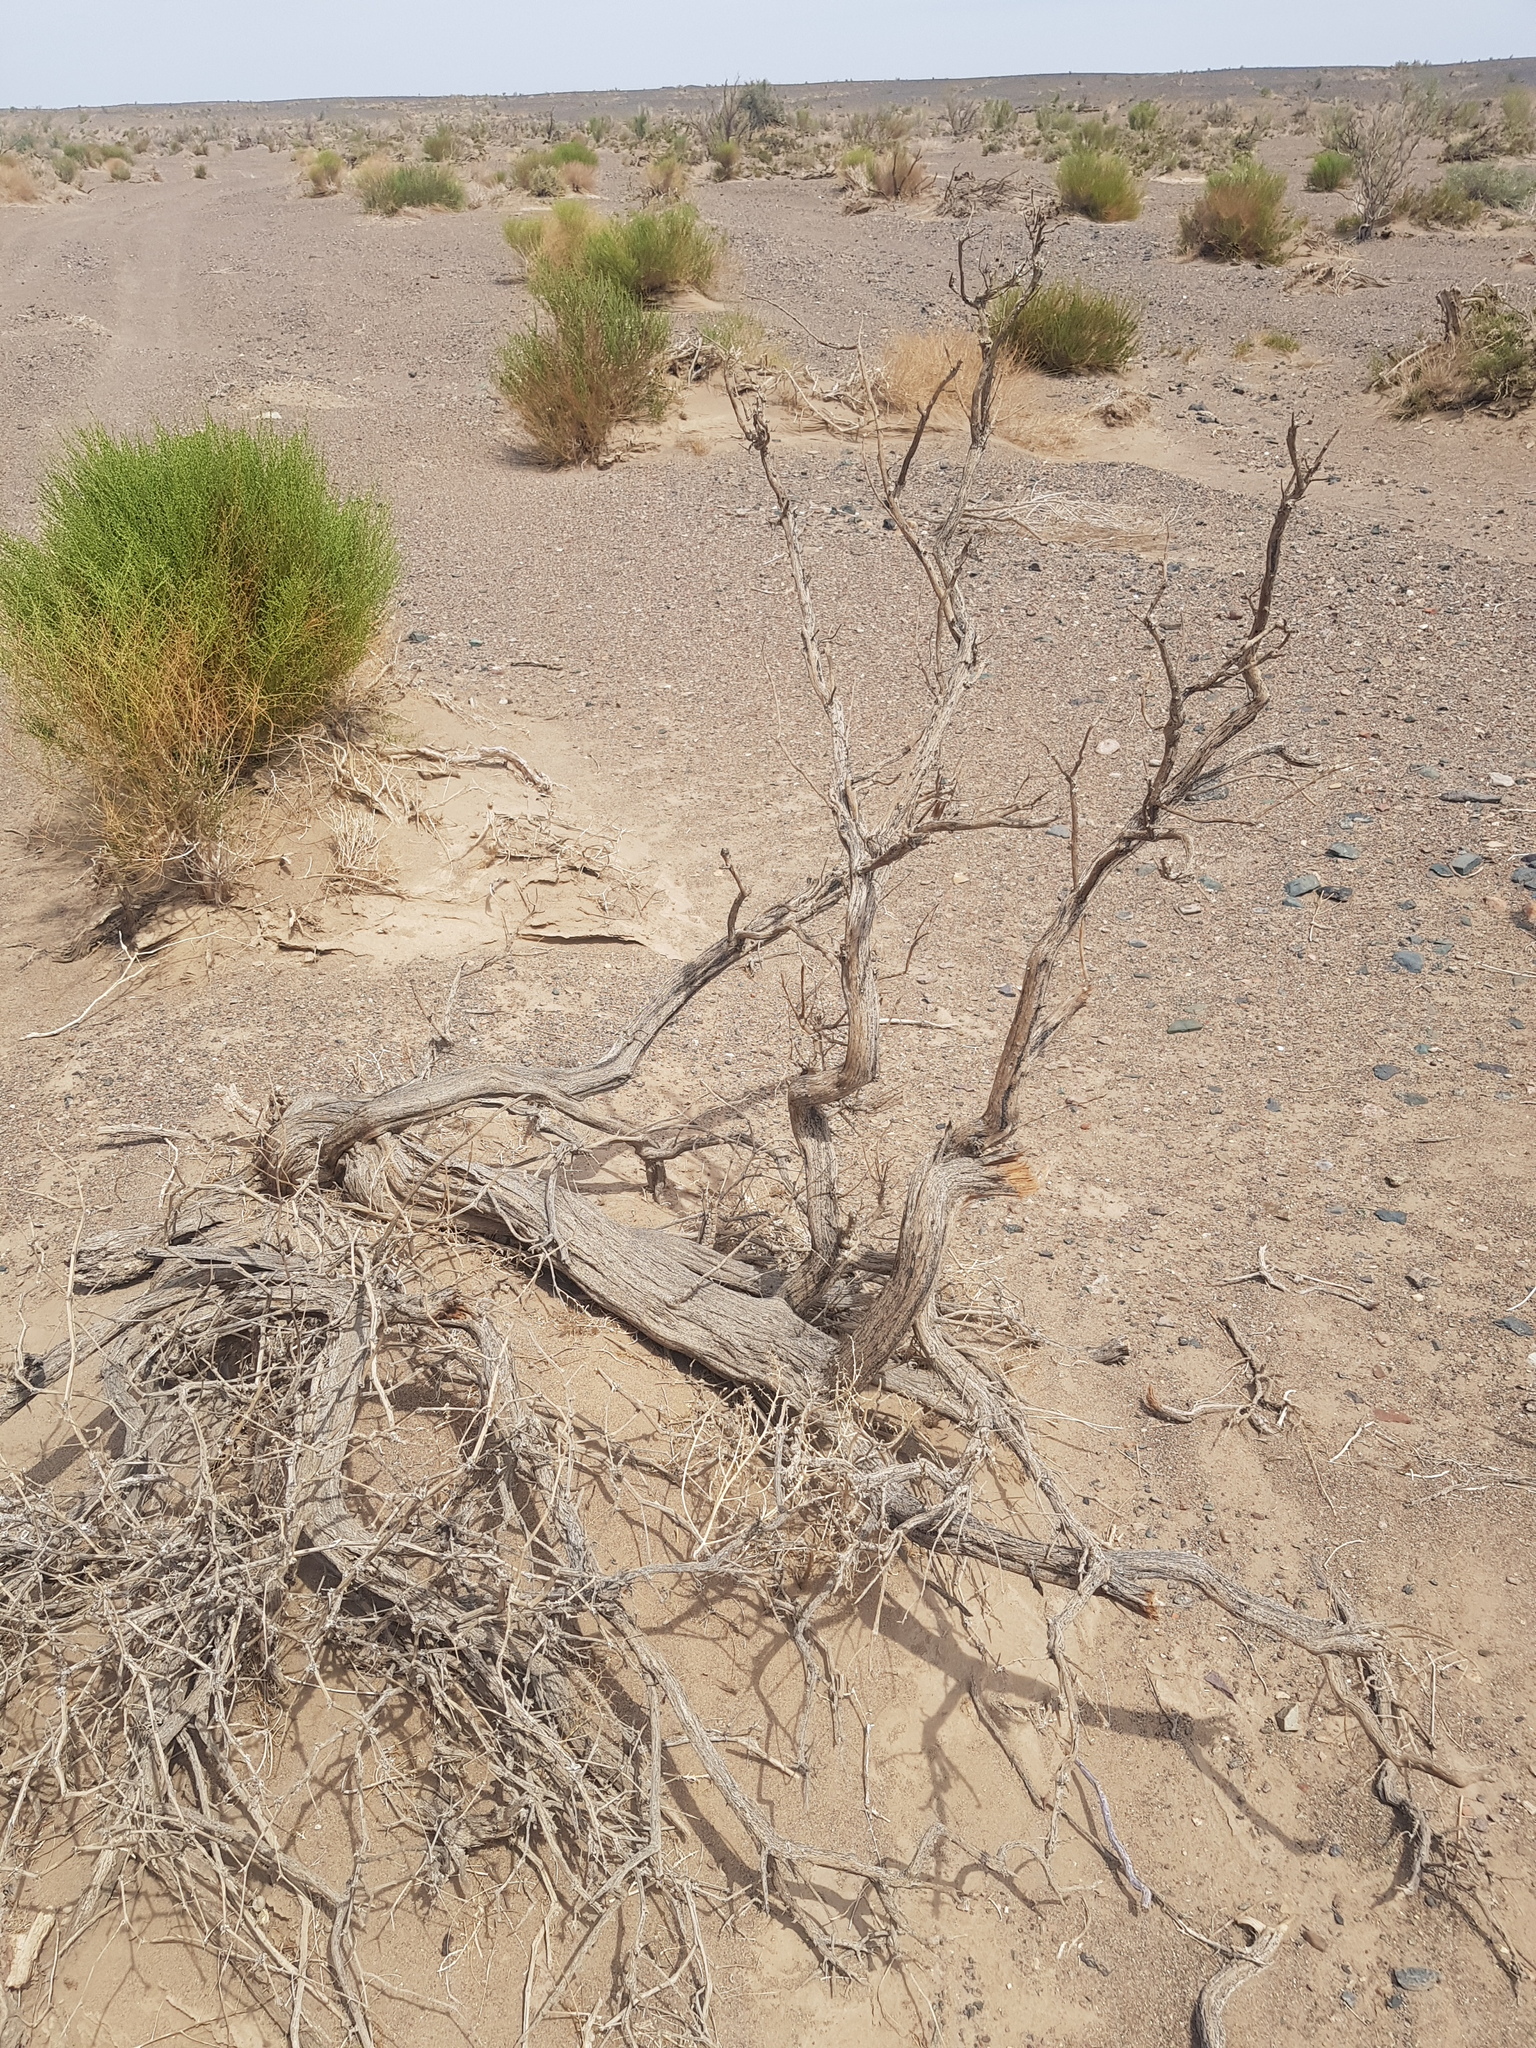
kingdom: Plantae
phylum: Tracheophyta
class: Magnoliopsida
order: Caryophyllales
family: Amaranthaceae
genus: Haloxylon
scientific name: Haloxylon ammodendron
